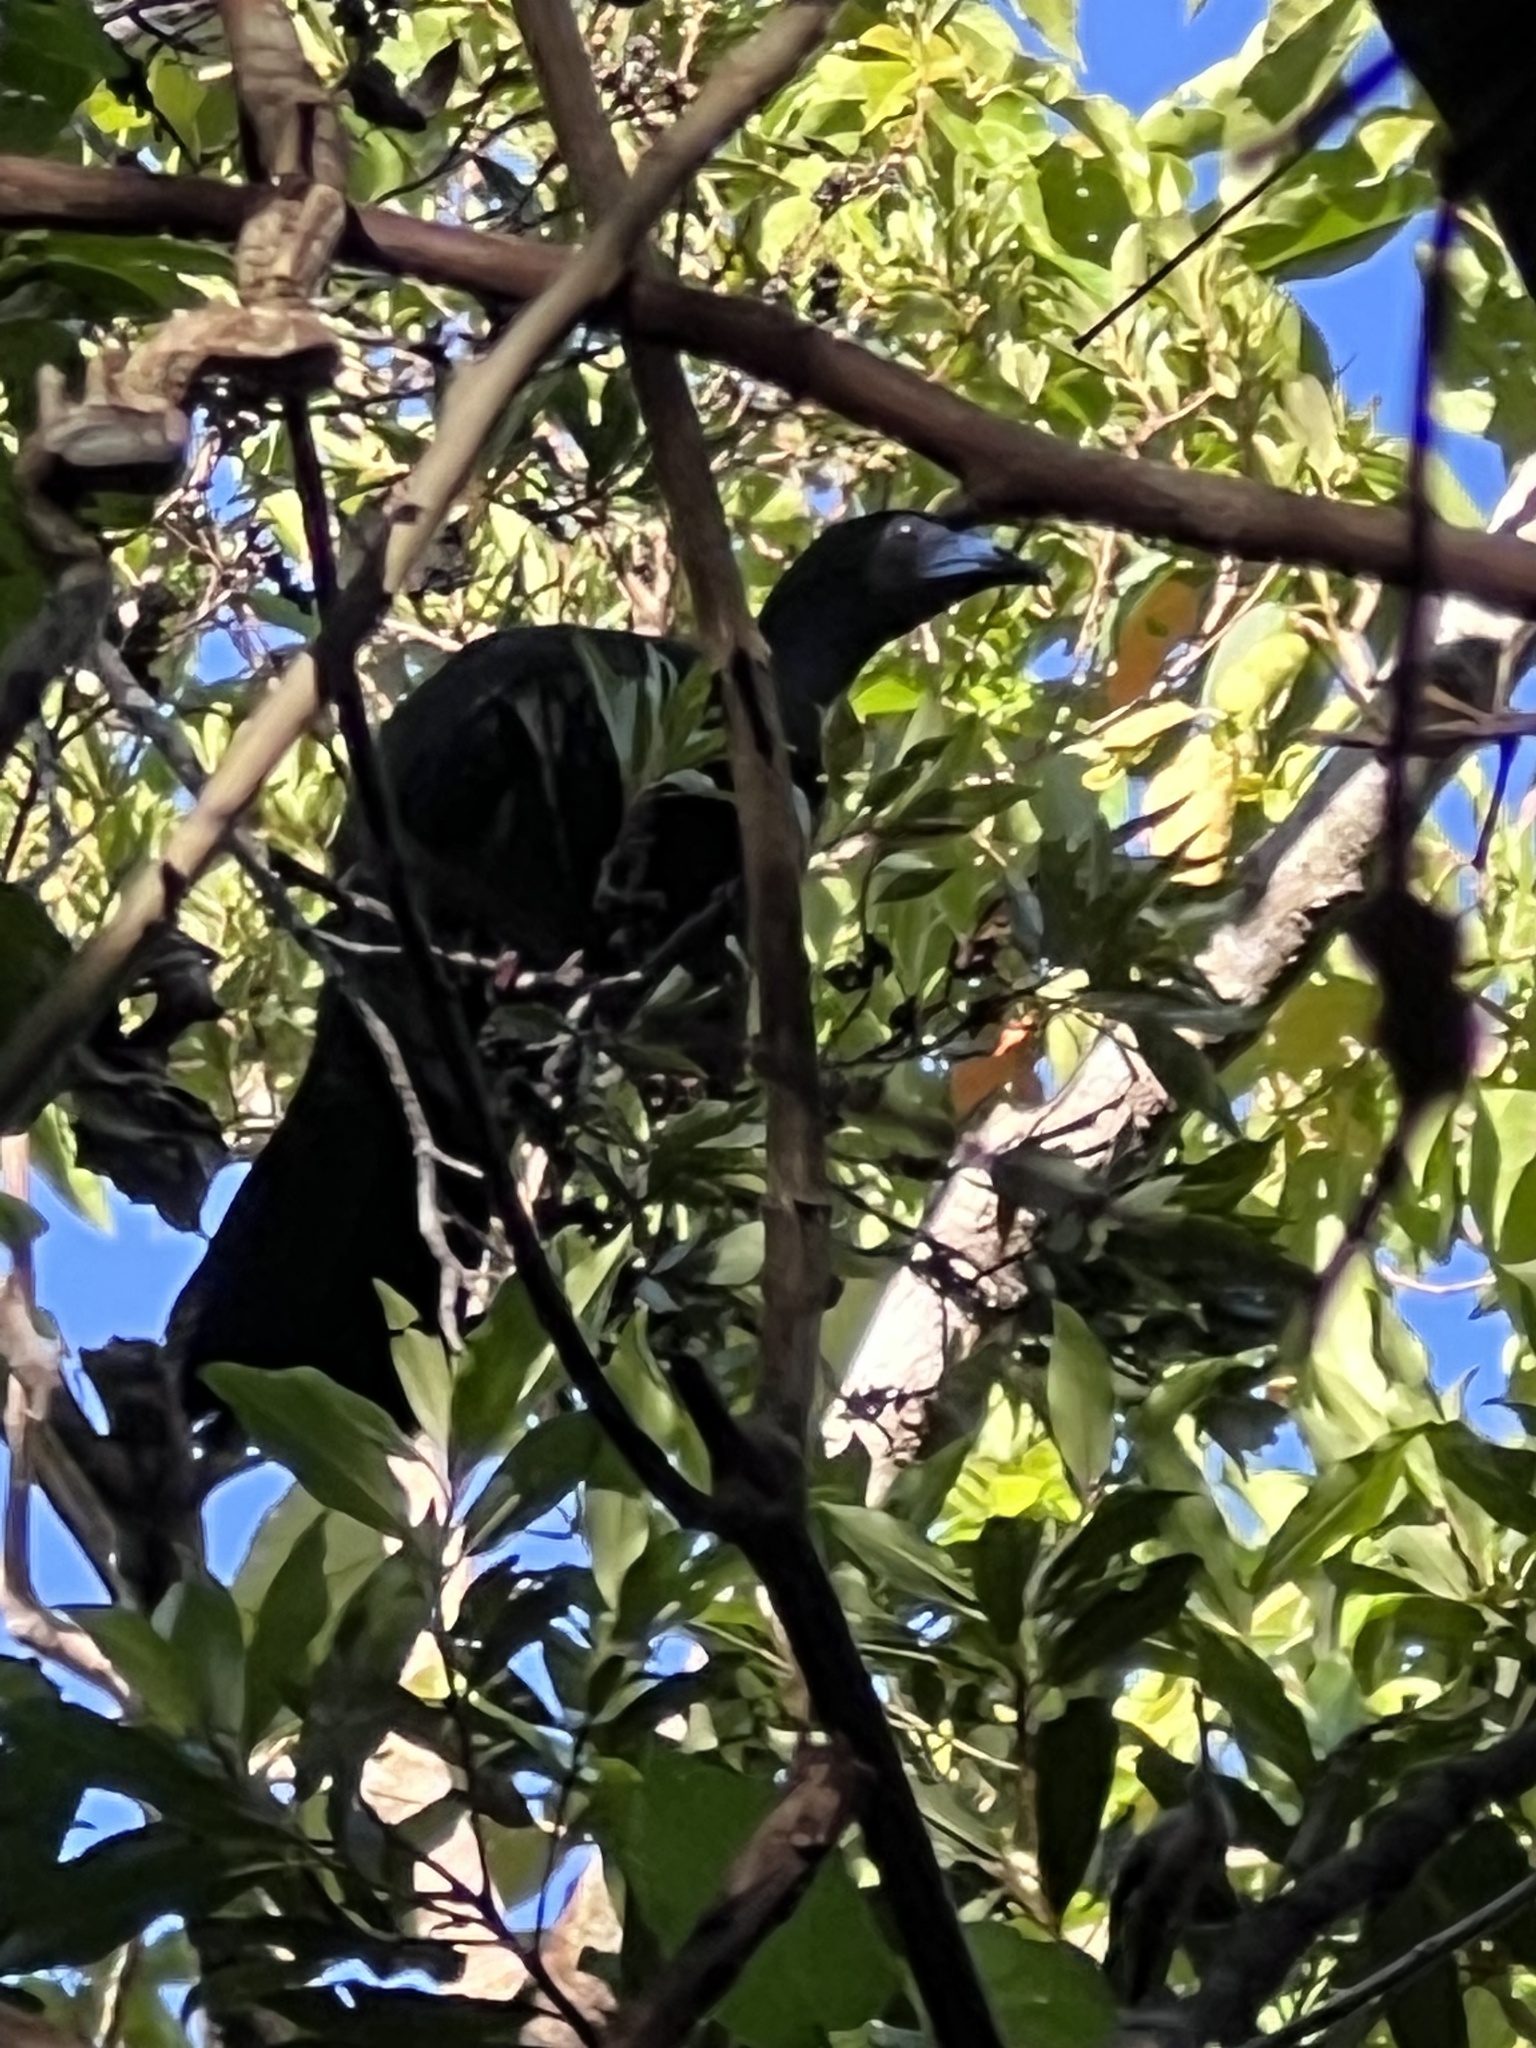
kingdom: Animalia
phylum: Chordata
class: Aves
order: Galliformes
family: Cracidae
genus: Chamaepetes
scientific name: Chamaepetes unicolor
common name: Black guan
